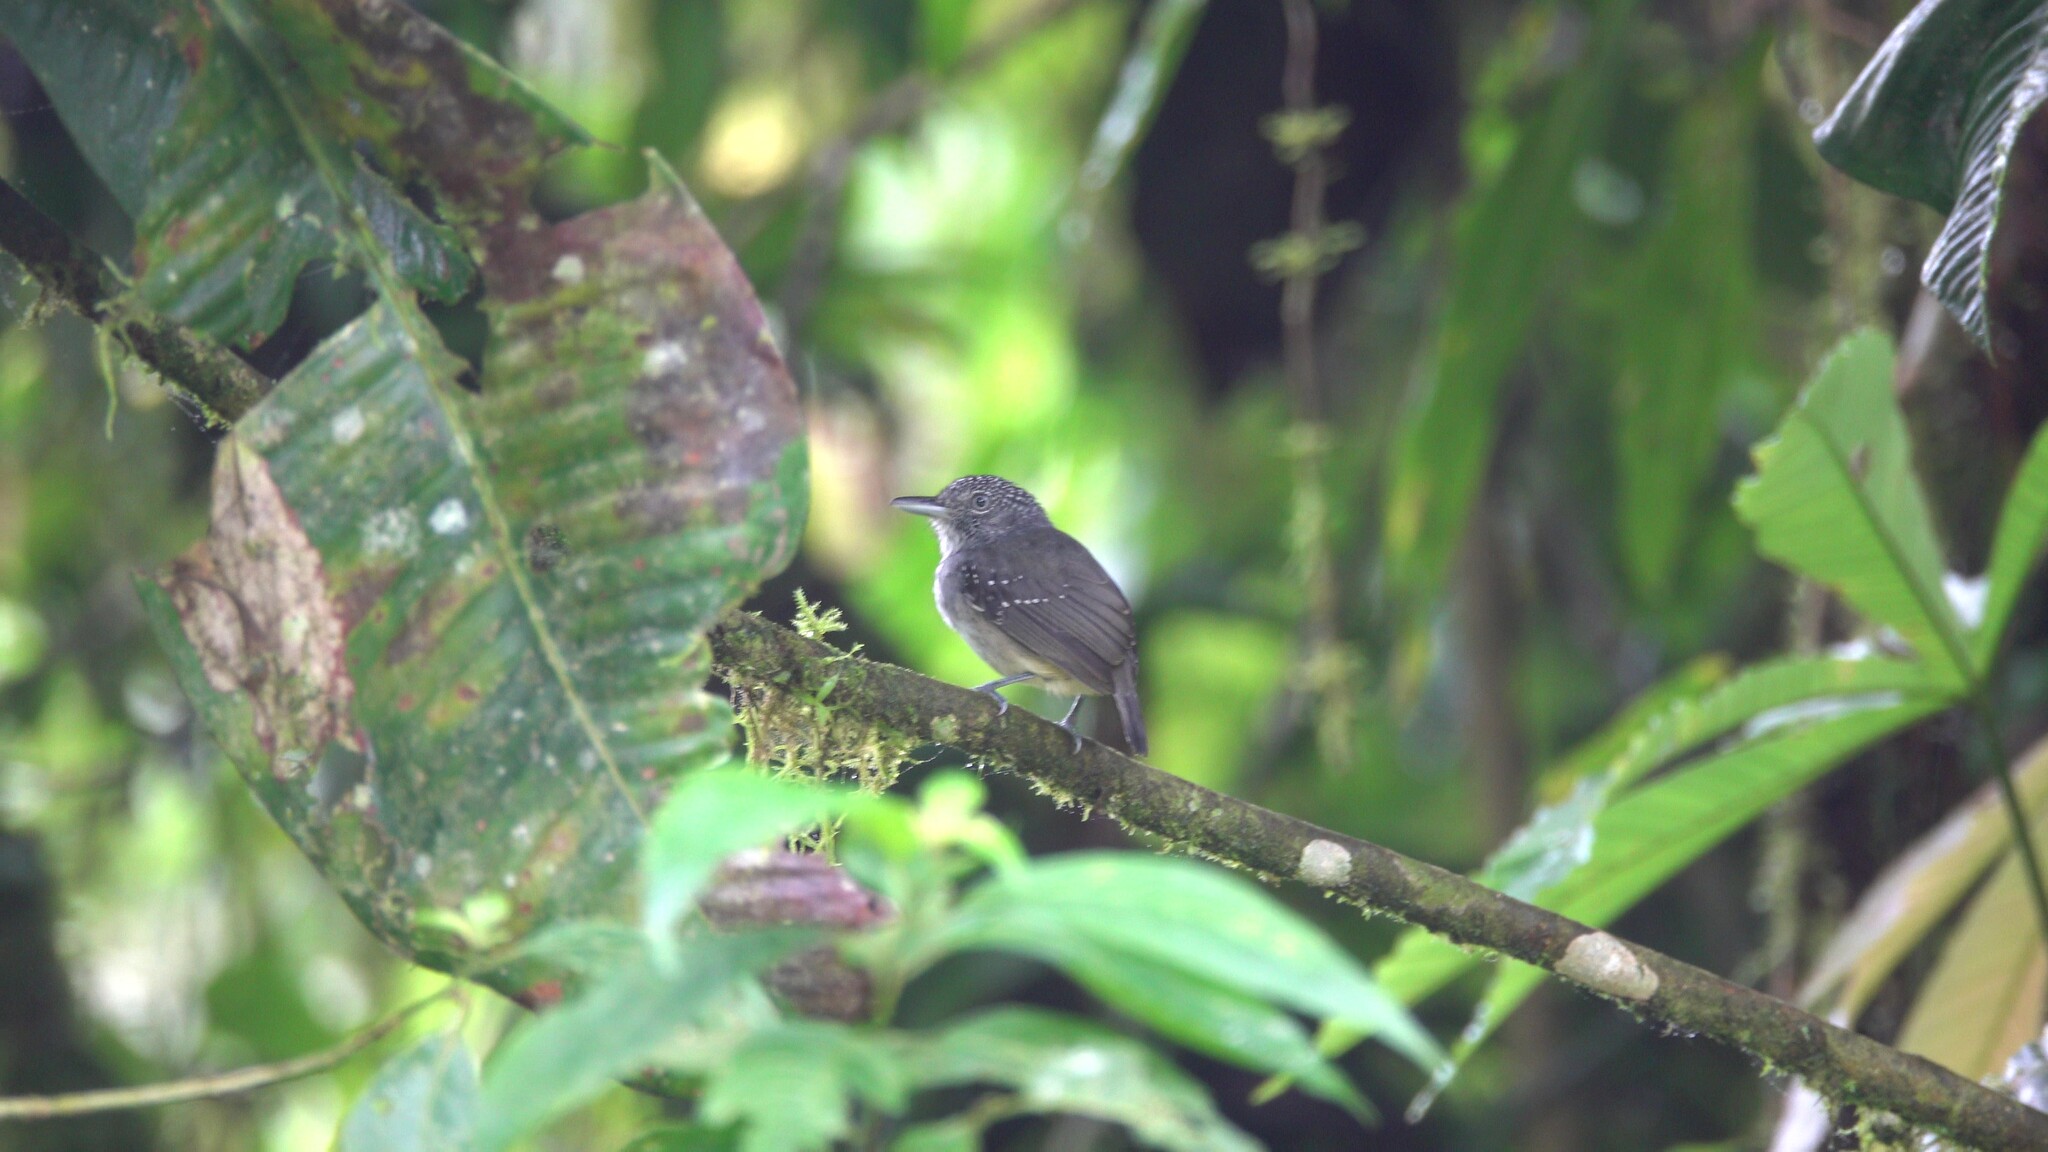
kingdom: Animalia
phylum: Chordata
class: Aves
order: Passeriformes
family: Thamnophilidae
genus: Dysithamnus
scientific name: Dysithamnus puncticeps
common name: Spot-crowned antvireo
